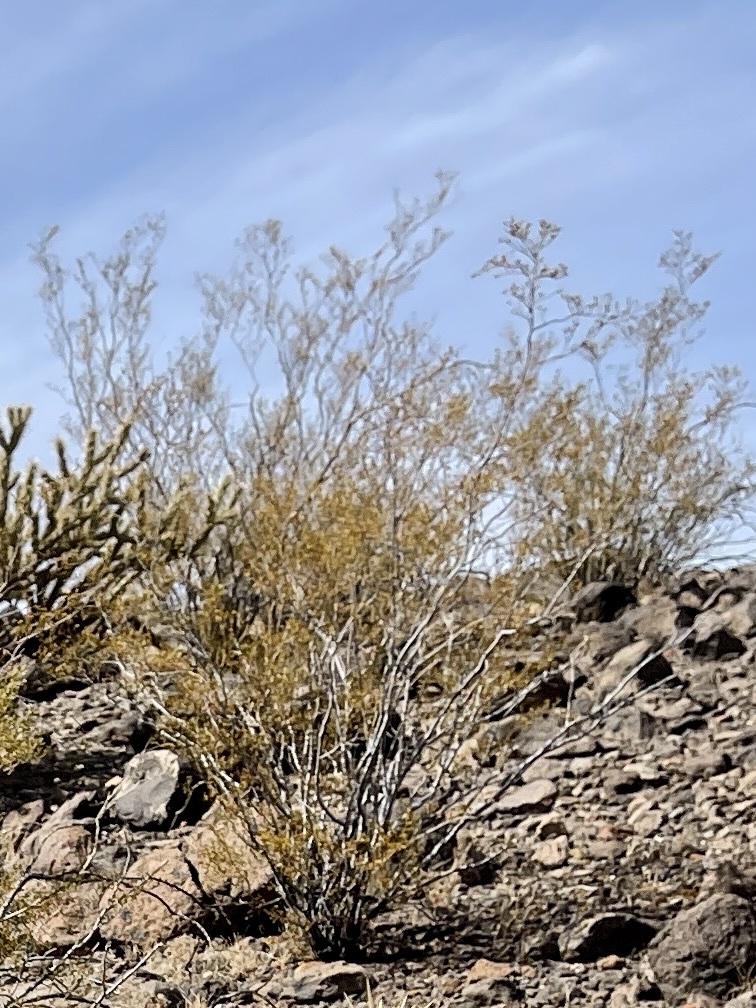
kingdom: Plantae
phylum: Tracheophyta
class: Magnoliopsida
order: Zygophyllales
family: Zygophyllaceae
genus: Larrea
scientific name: Larrea tridentata
